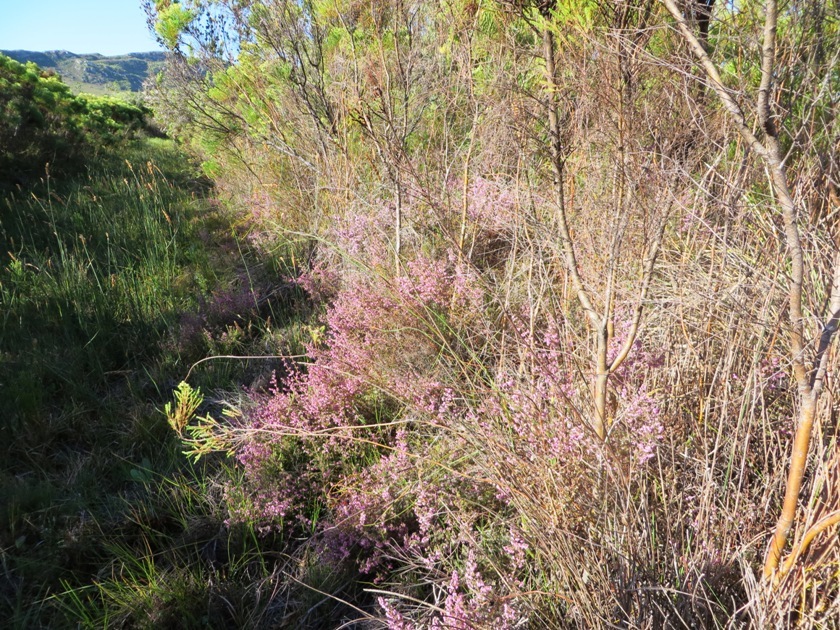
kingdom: Plantae
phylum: Tracheophyta
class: Magnoliopsida
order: Ericales
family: Ericaceae
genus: Erica
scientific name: Erica parviflora
